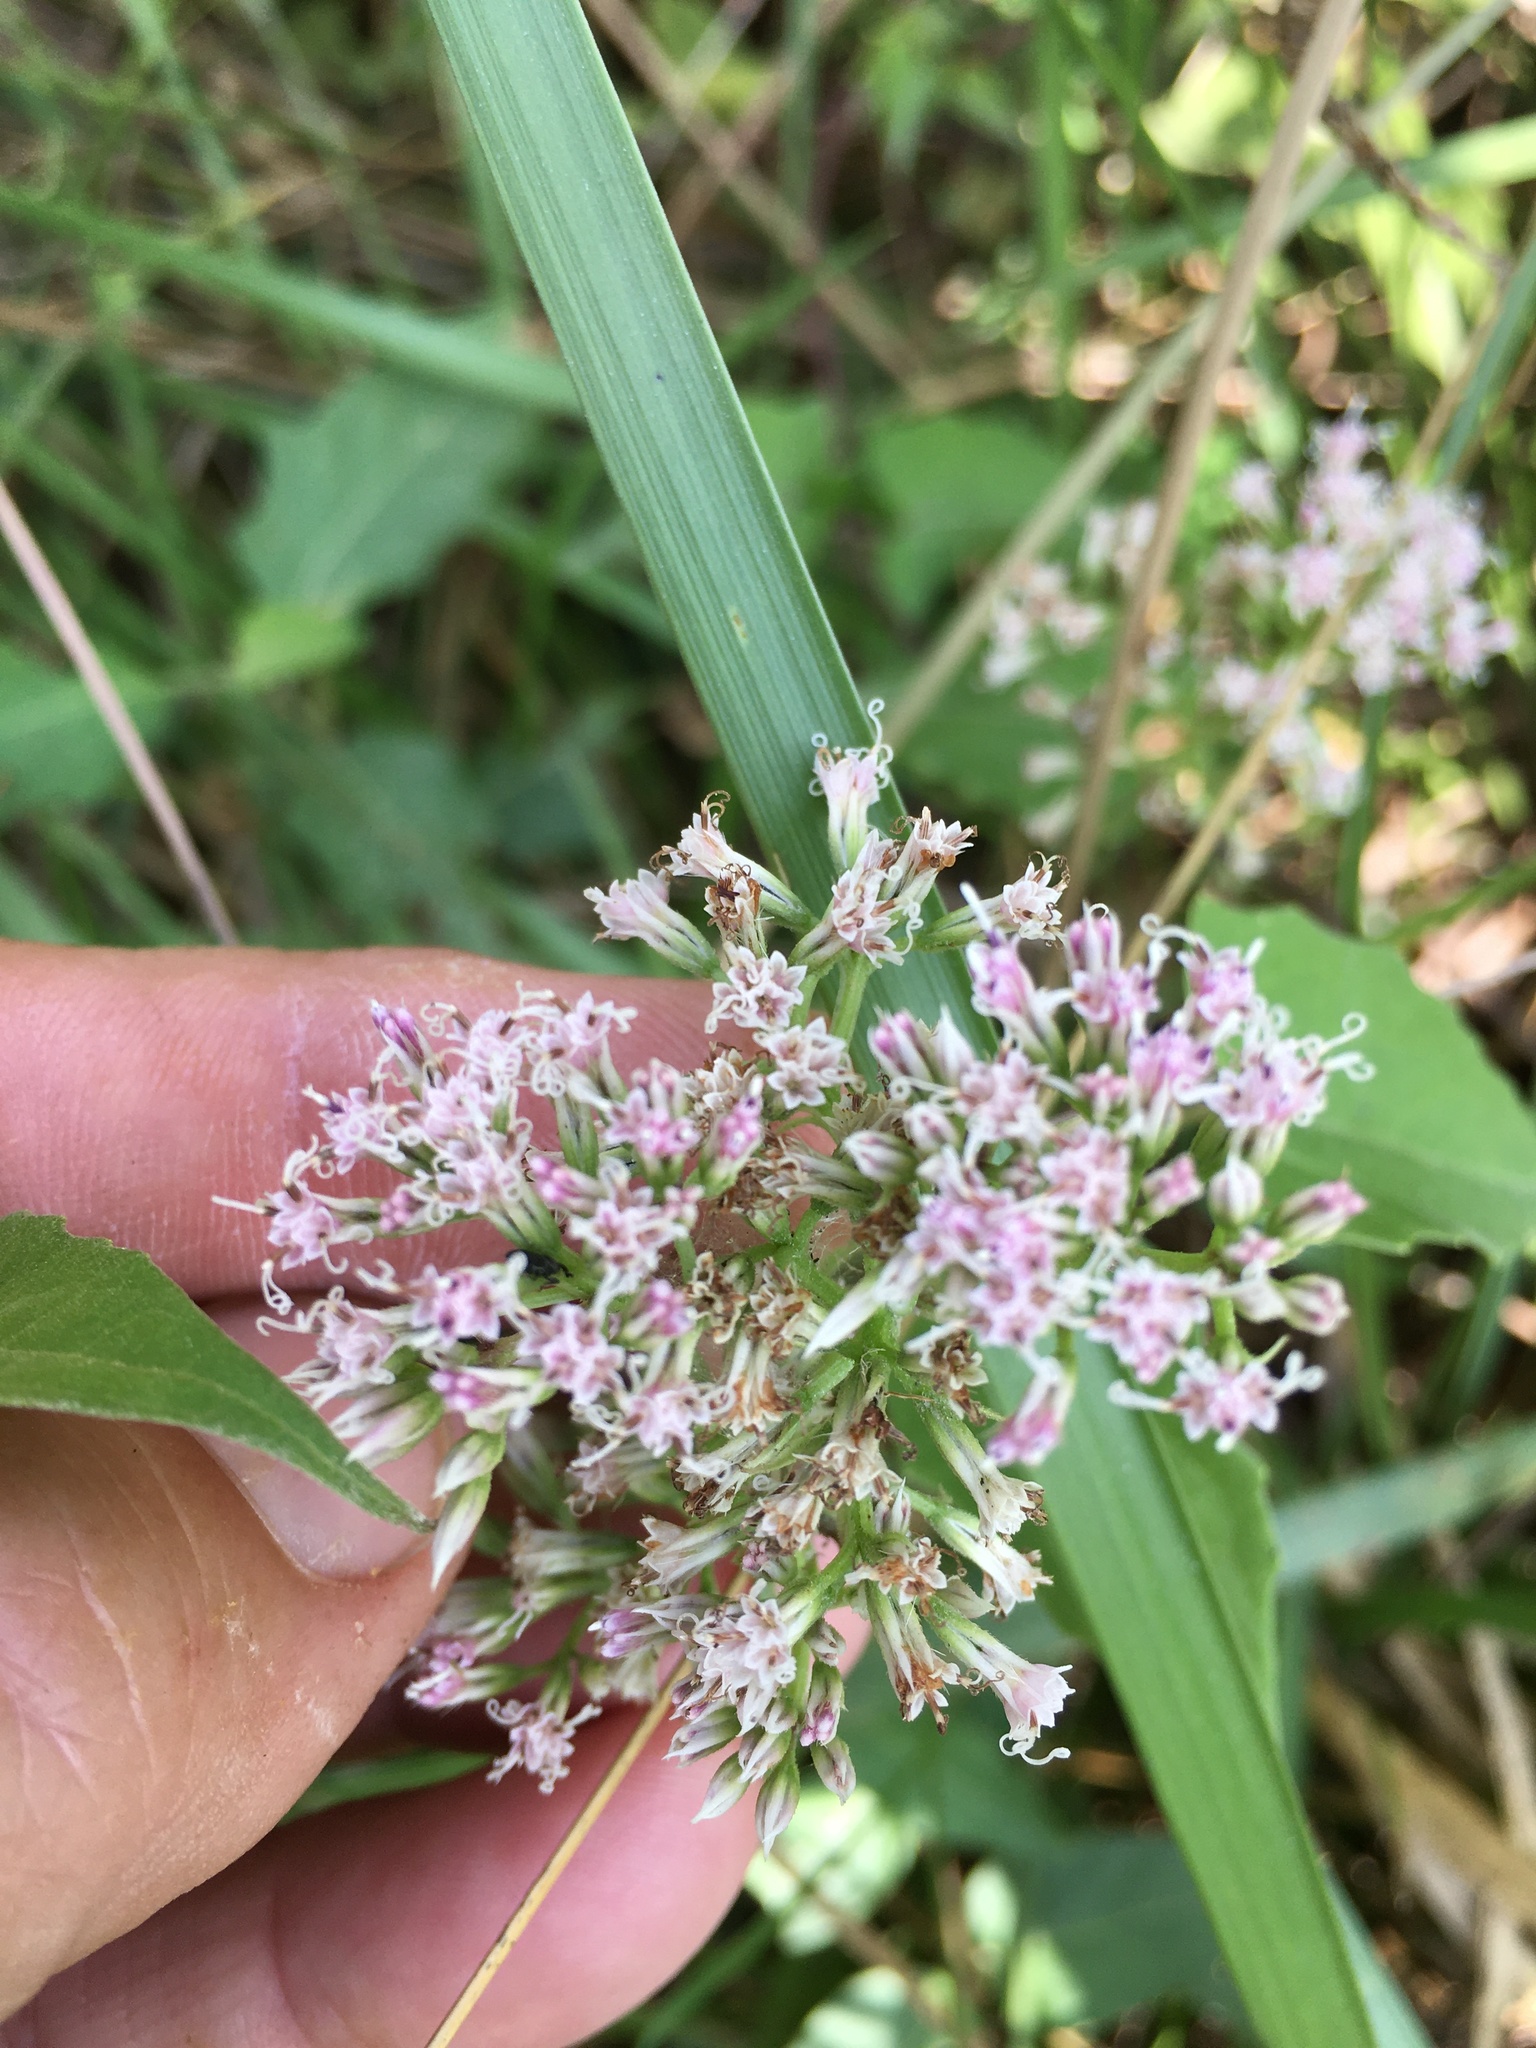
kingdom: Plantae
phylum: Tracheophyta
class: Magnoliopsida
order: Asterales
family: Asteraceae
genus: Mikania
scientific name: Mikania scandens
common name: Climbing hempvine
